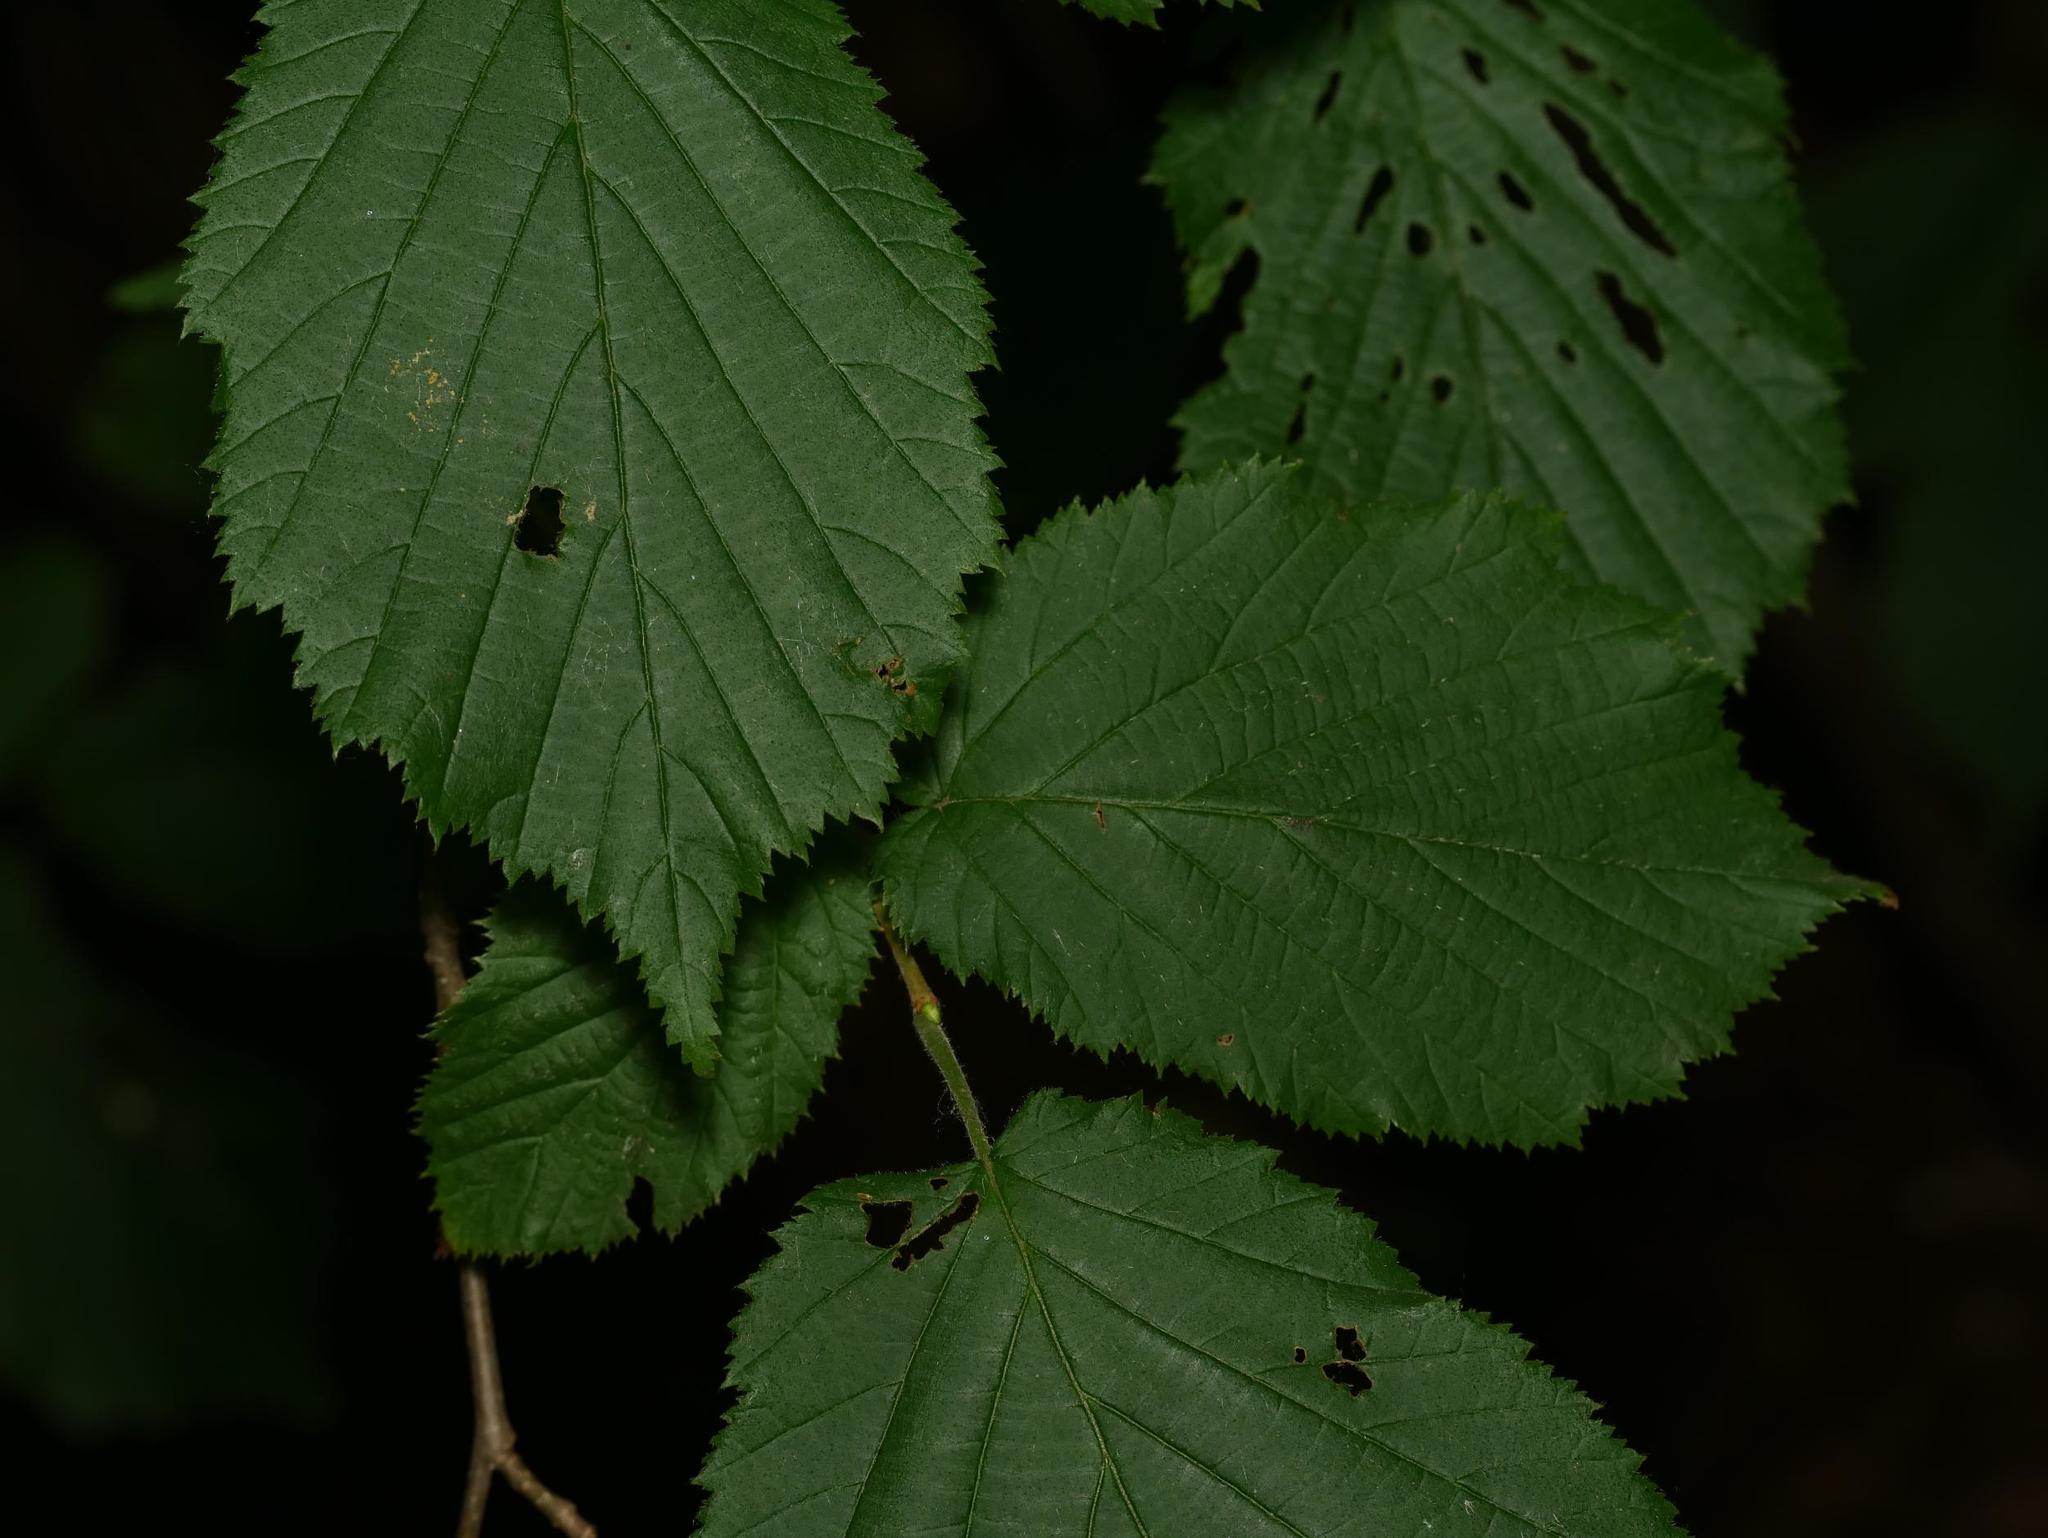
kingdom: Plantae
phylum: Tracheophyta
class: Magnoliopsida
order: Fagales
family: Betulaceae
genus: Corylus
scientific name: Corylus avellana
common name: European hazel
